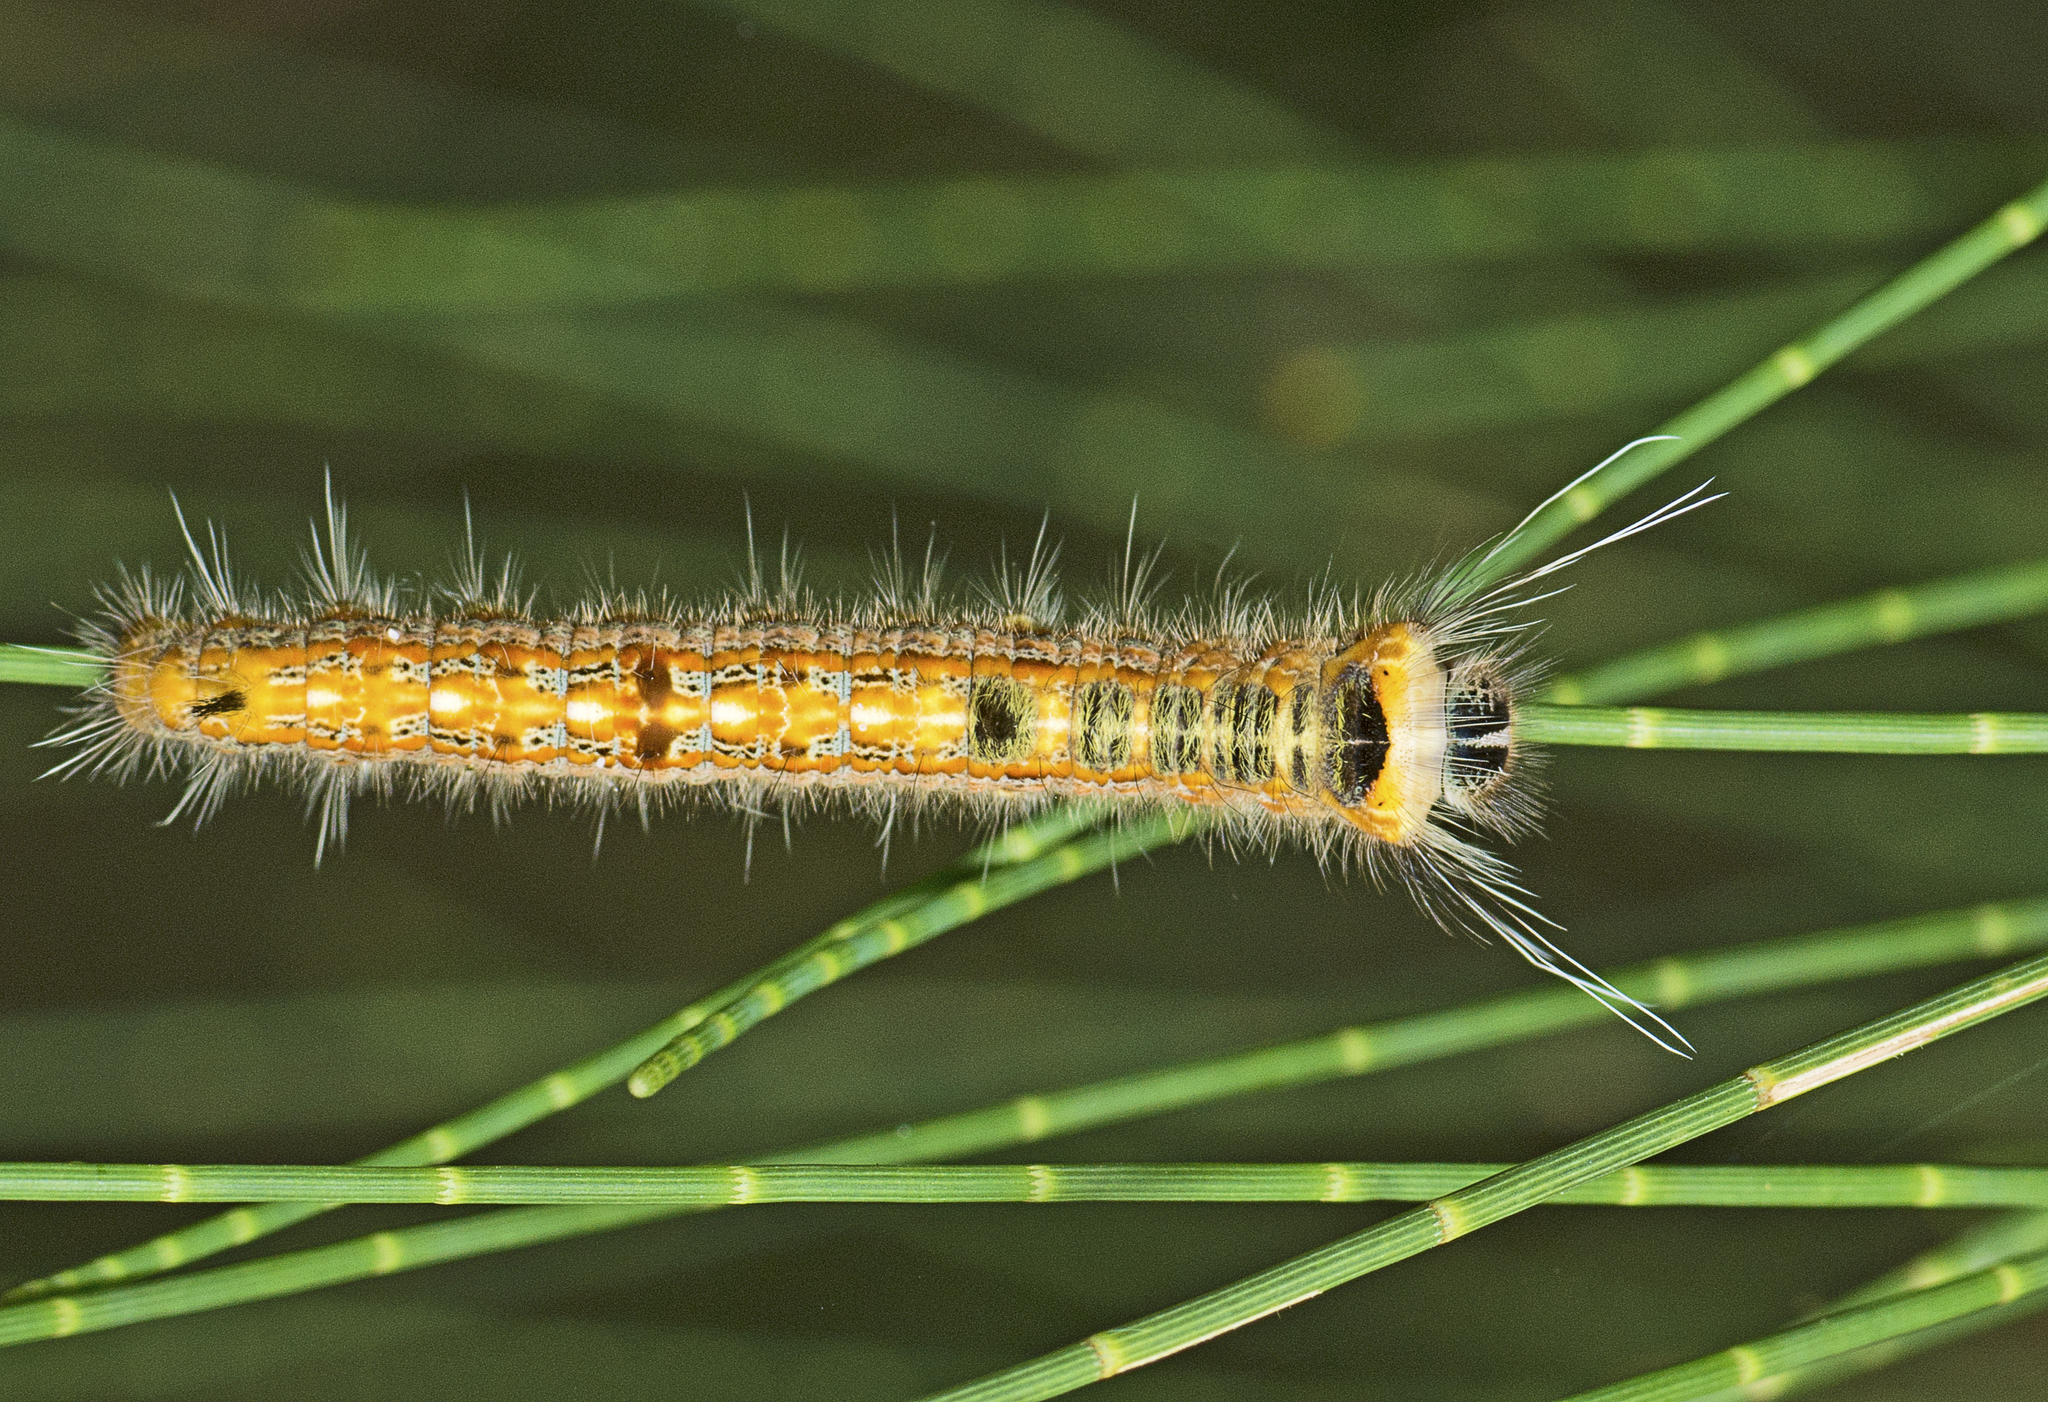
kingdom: Animalia
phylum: Arthropoda
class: Insecta
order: Lepidoptera
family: Lasiocampidae
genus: Pernattia
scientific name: Pernattia pusilla
